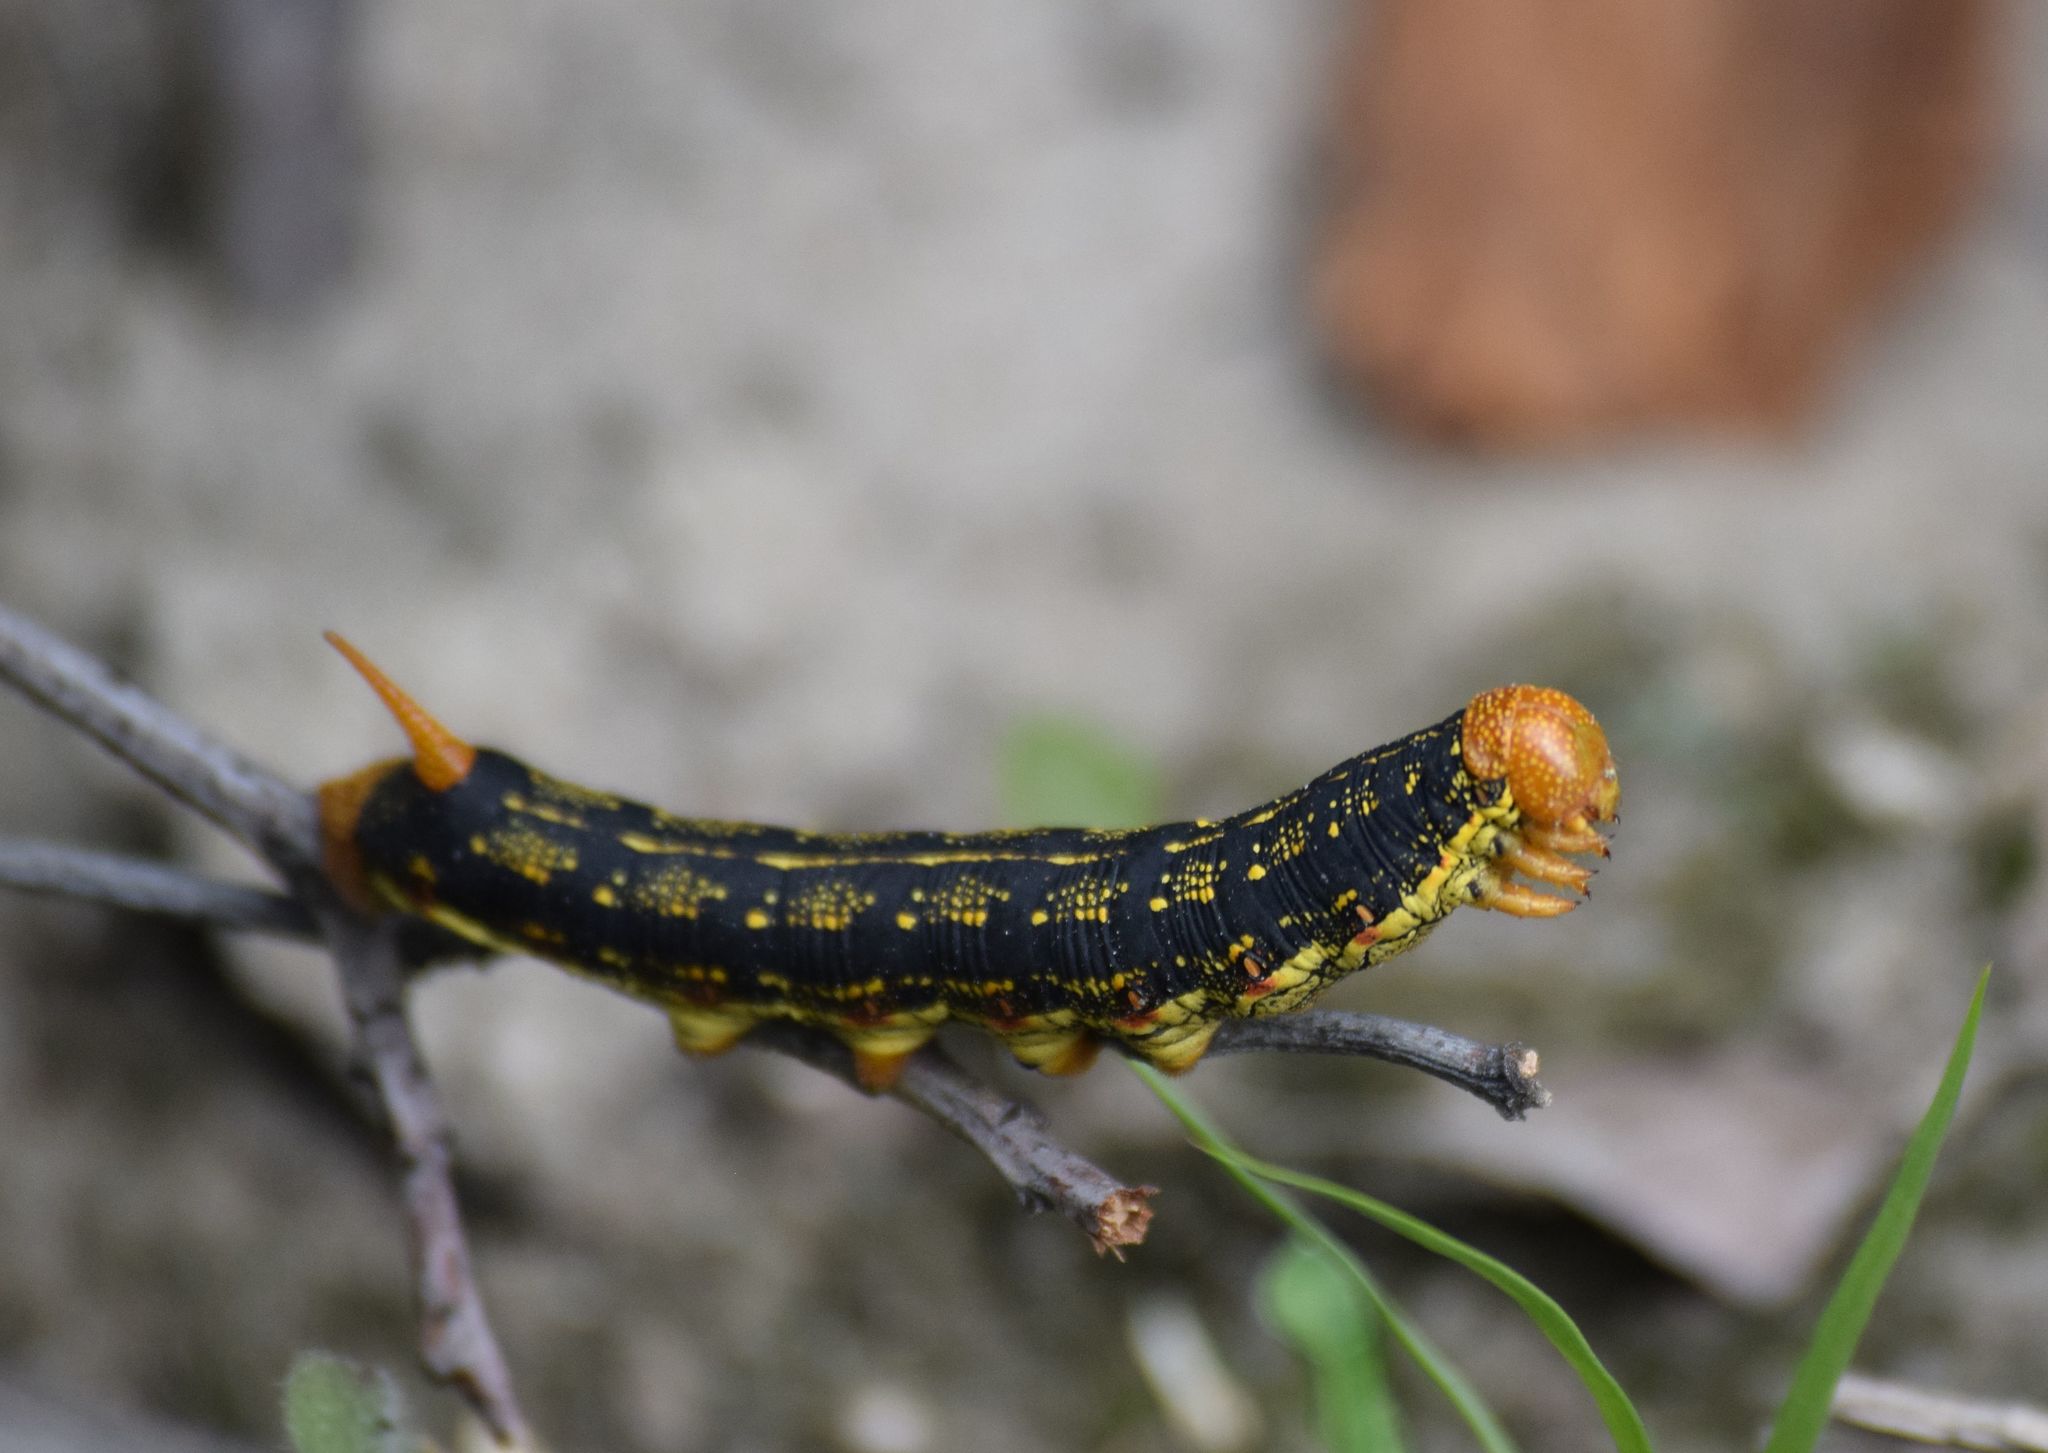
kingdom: Animalia
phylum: Arthropoda
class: Insecta
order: Lepidoptera
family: Sphingidae
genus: Hyles
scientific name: Hyles lineata
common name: White-lined sphinx
